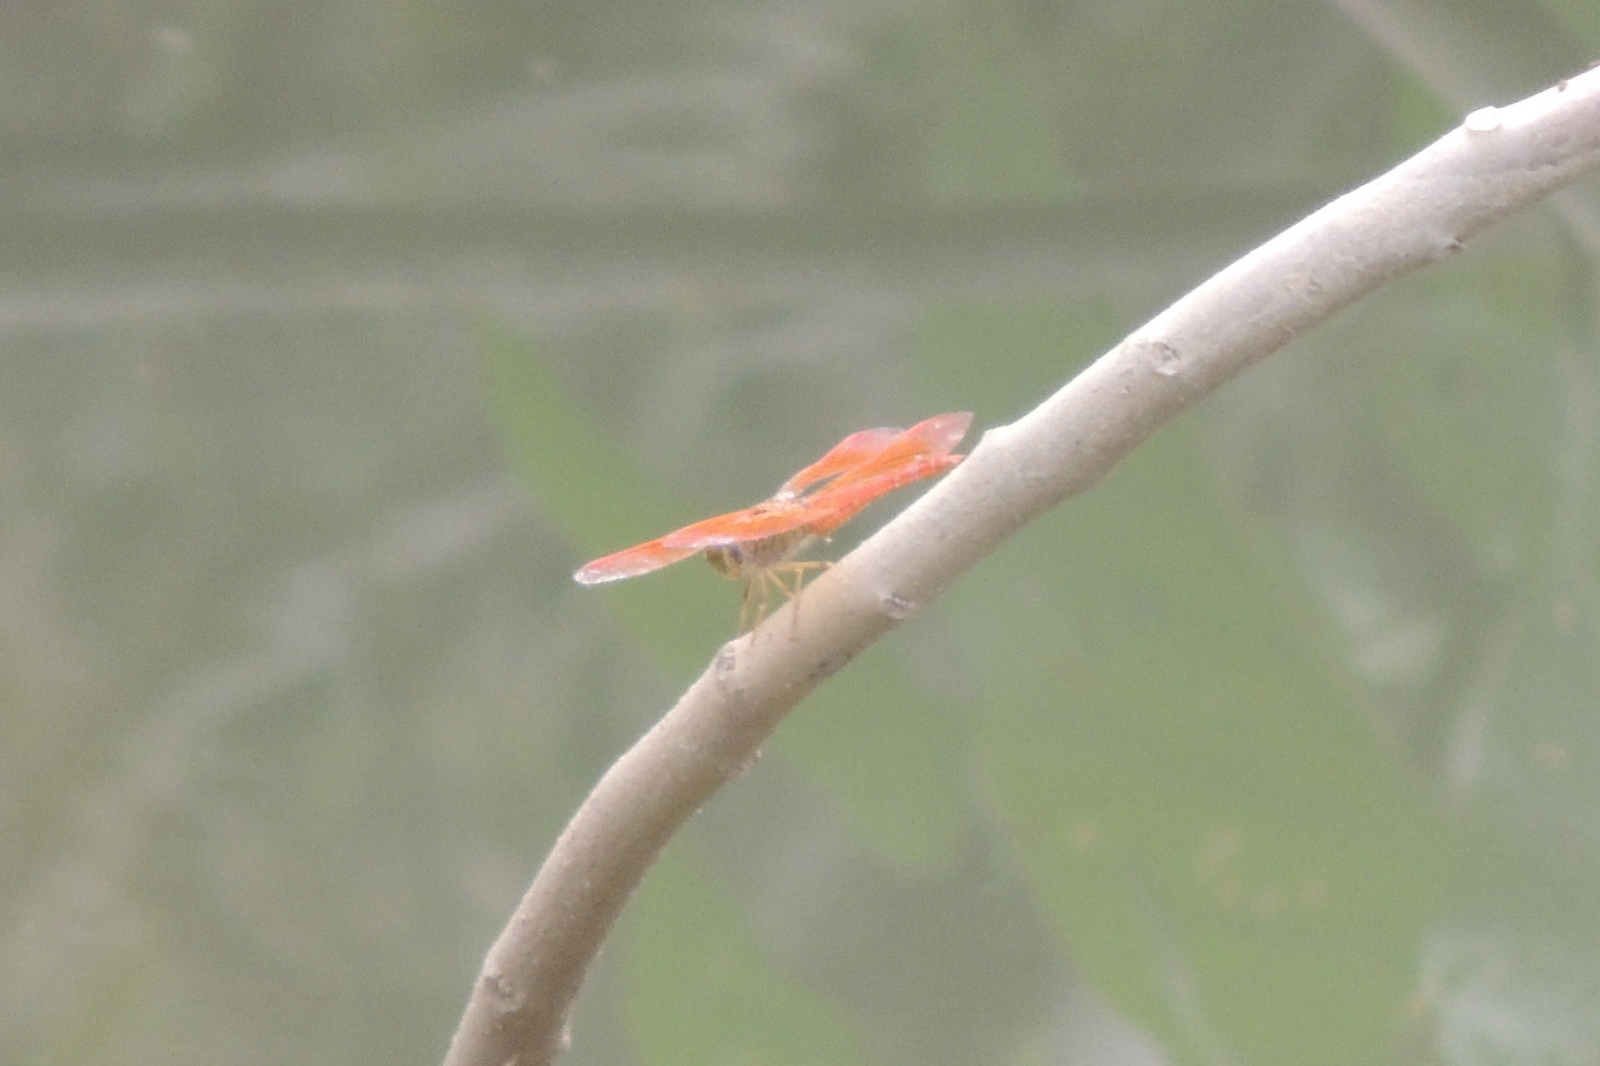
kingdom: Animalia
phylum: Arthropoda
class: Insecta
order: Odonata
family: Libellulidae
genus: Brachythemis
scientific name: Brachythemis contaminata
